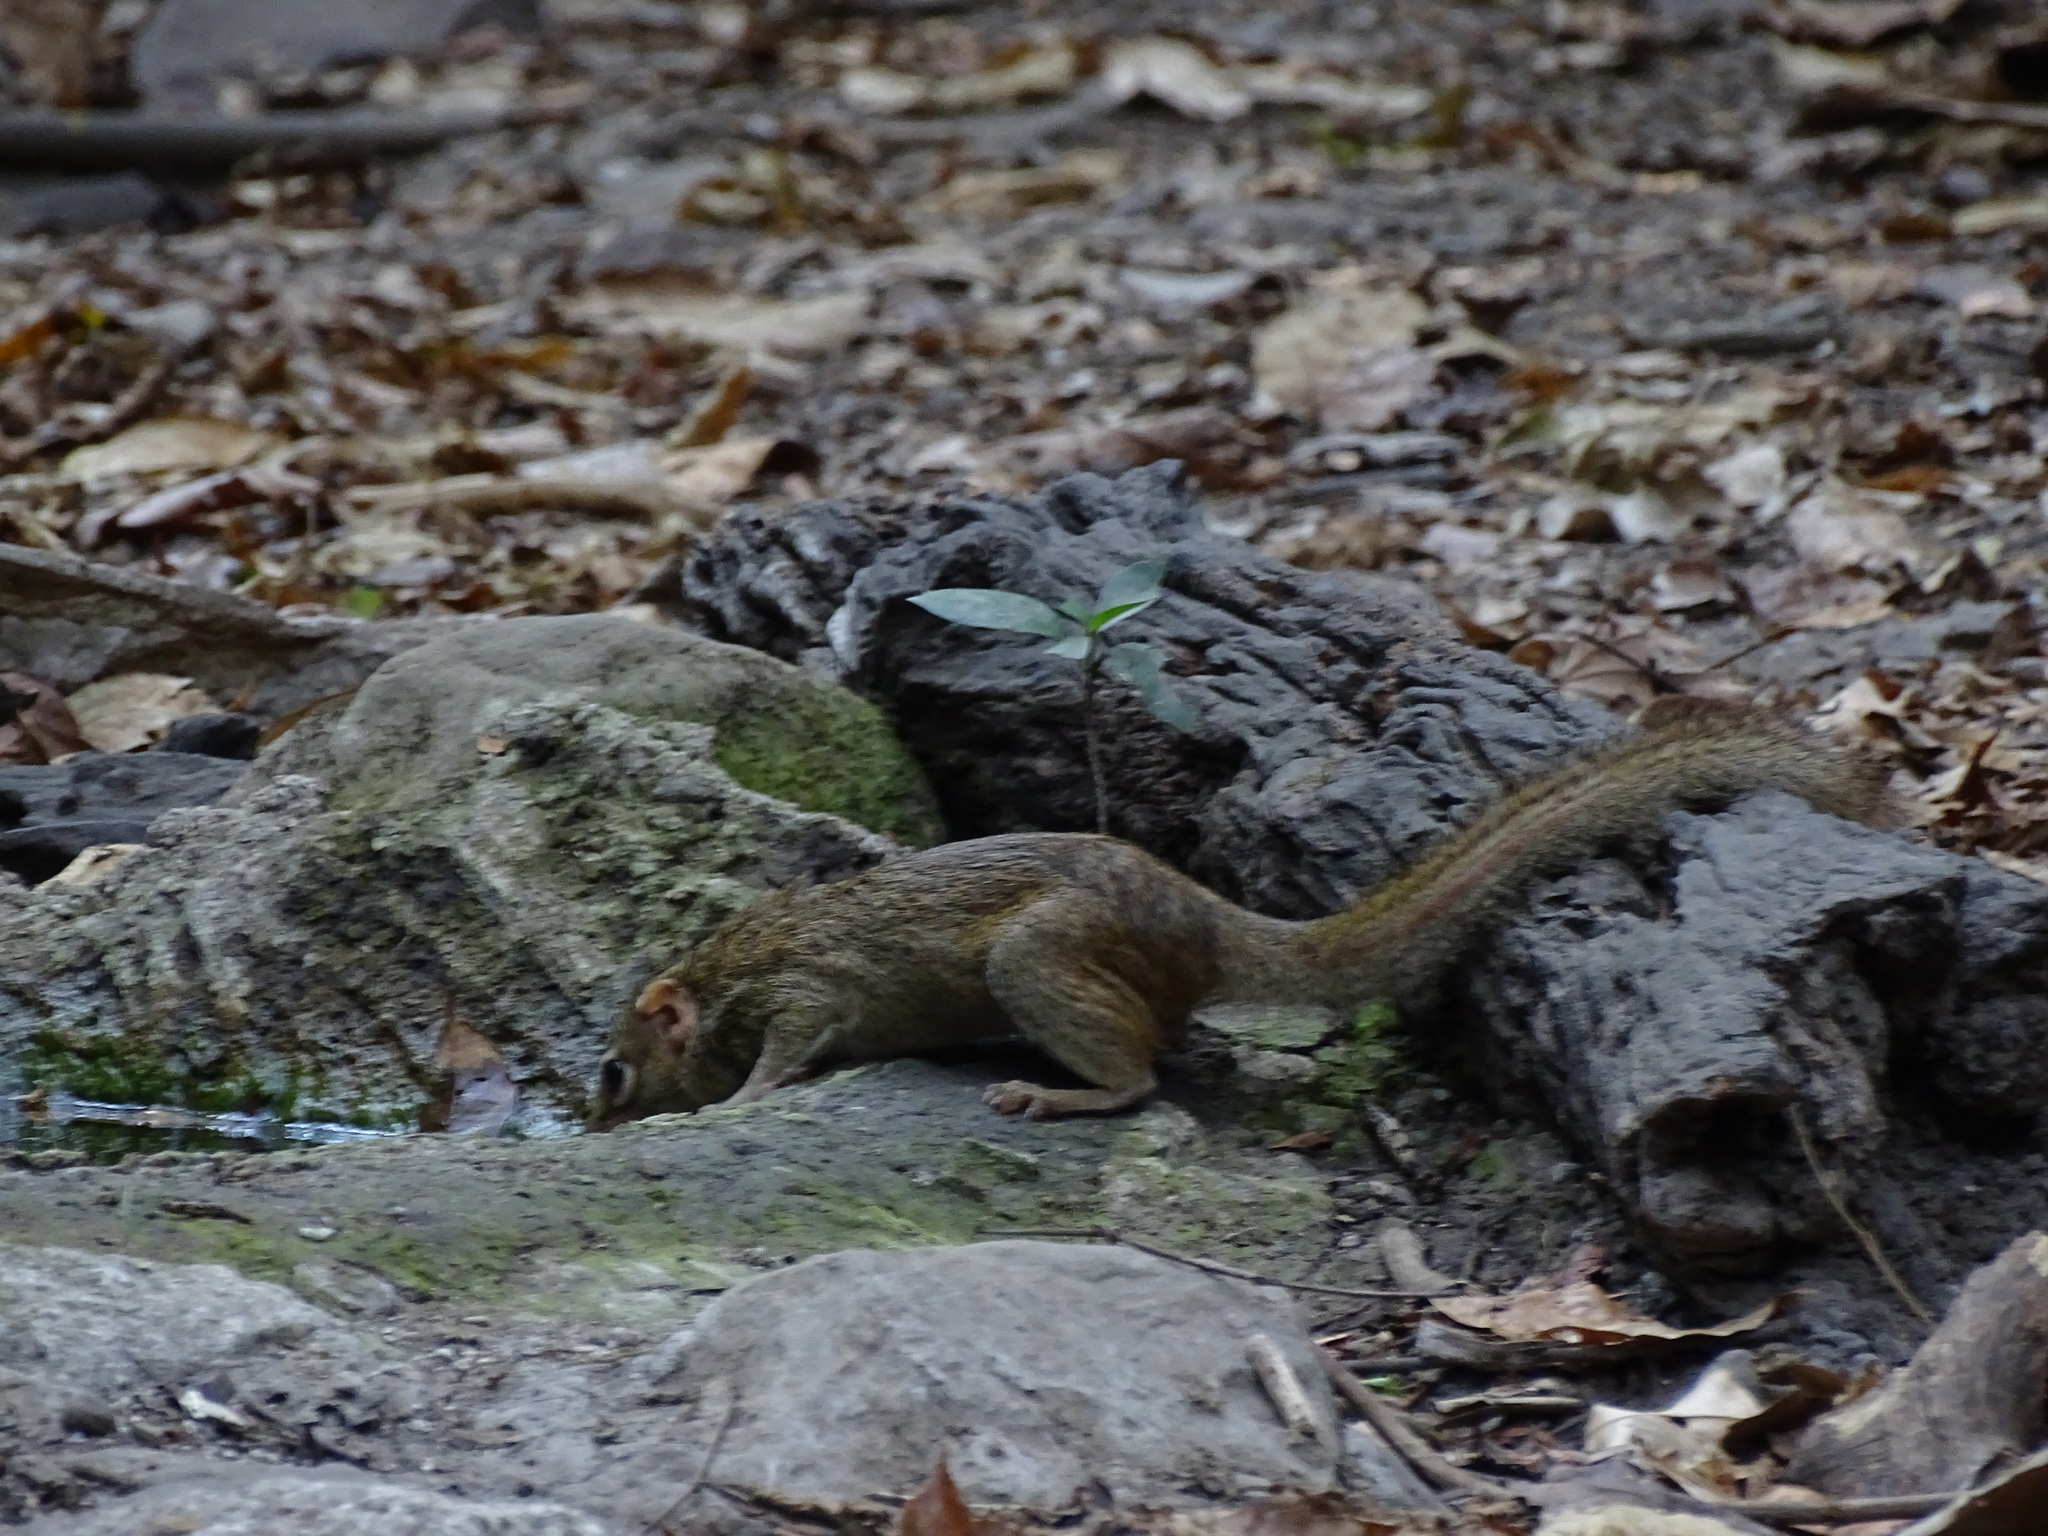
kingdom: Animalia
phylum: Chordata
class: Mammalia
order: Scandentia
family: Tupaiidae
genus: Tupaia
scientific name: Tupaia belangeri
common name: Northern treeshrew
